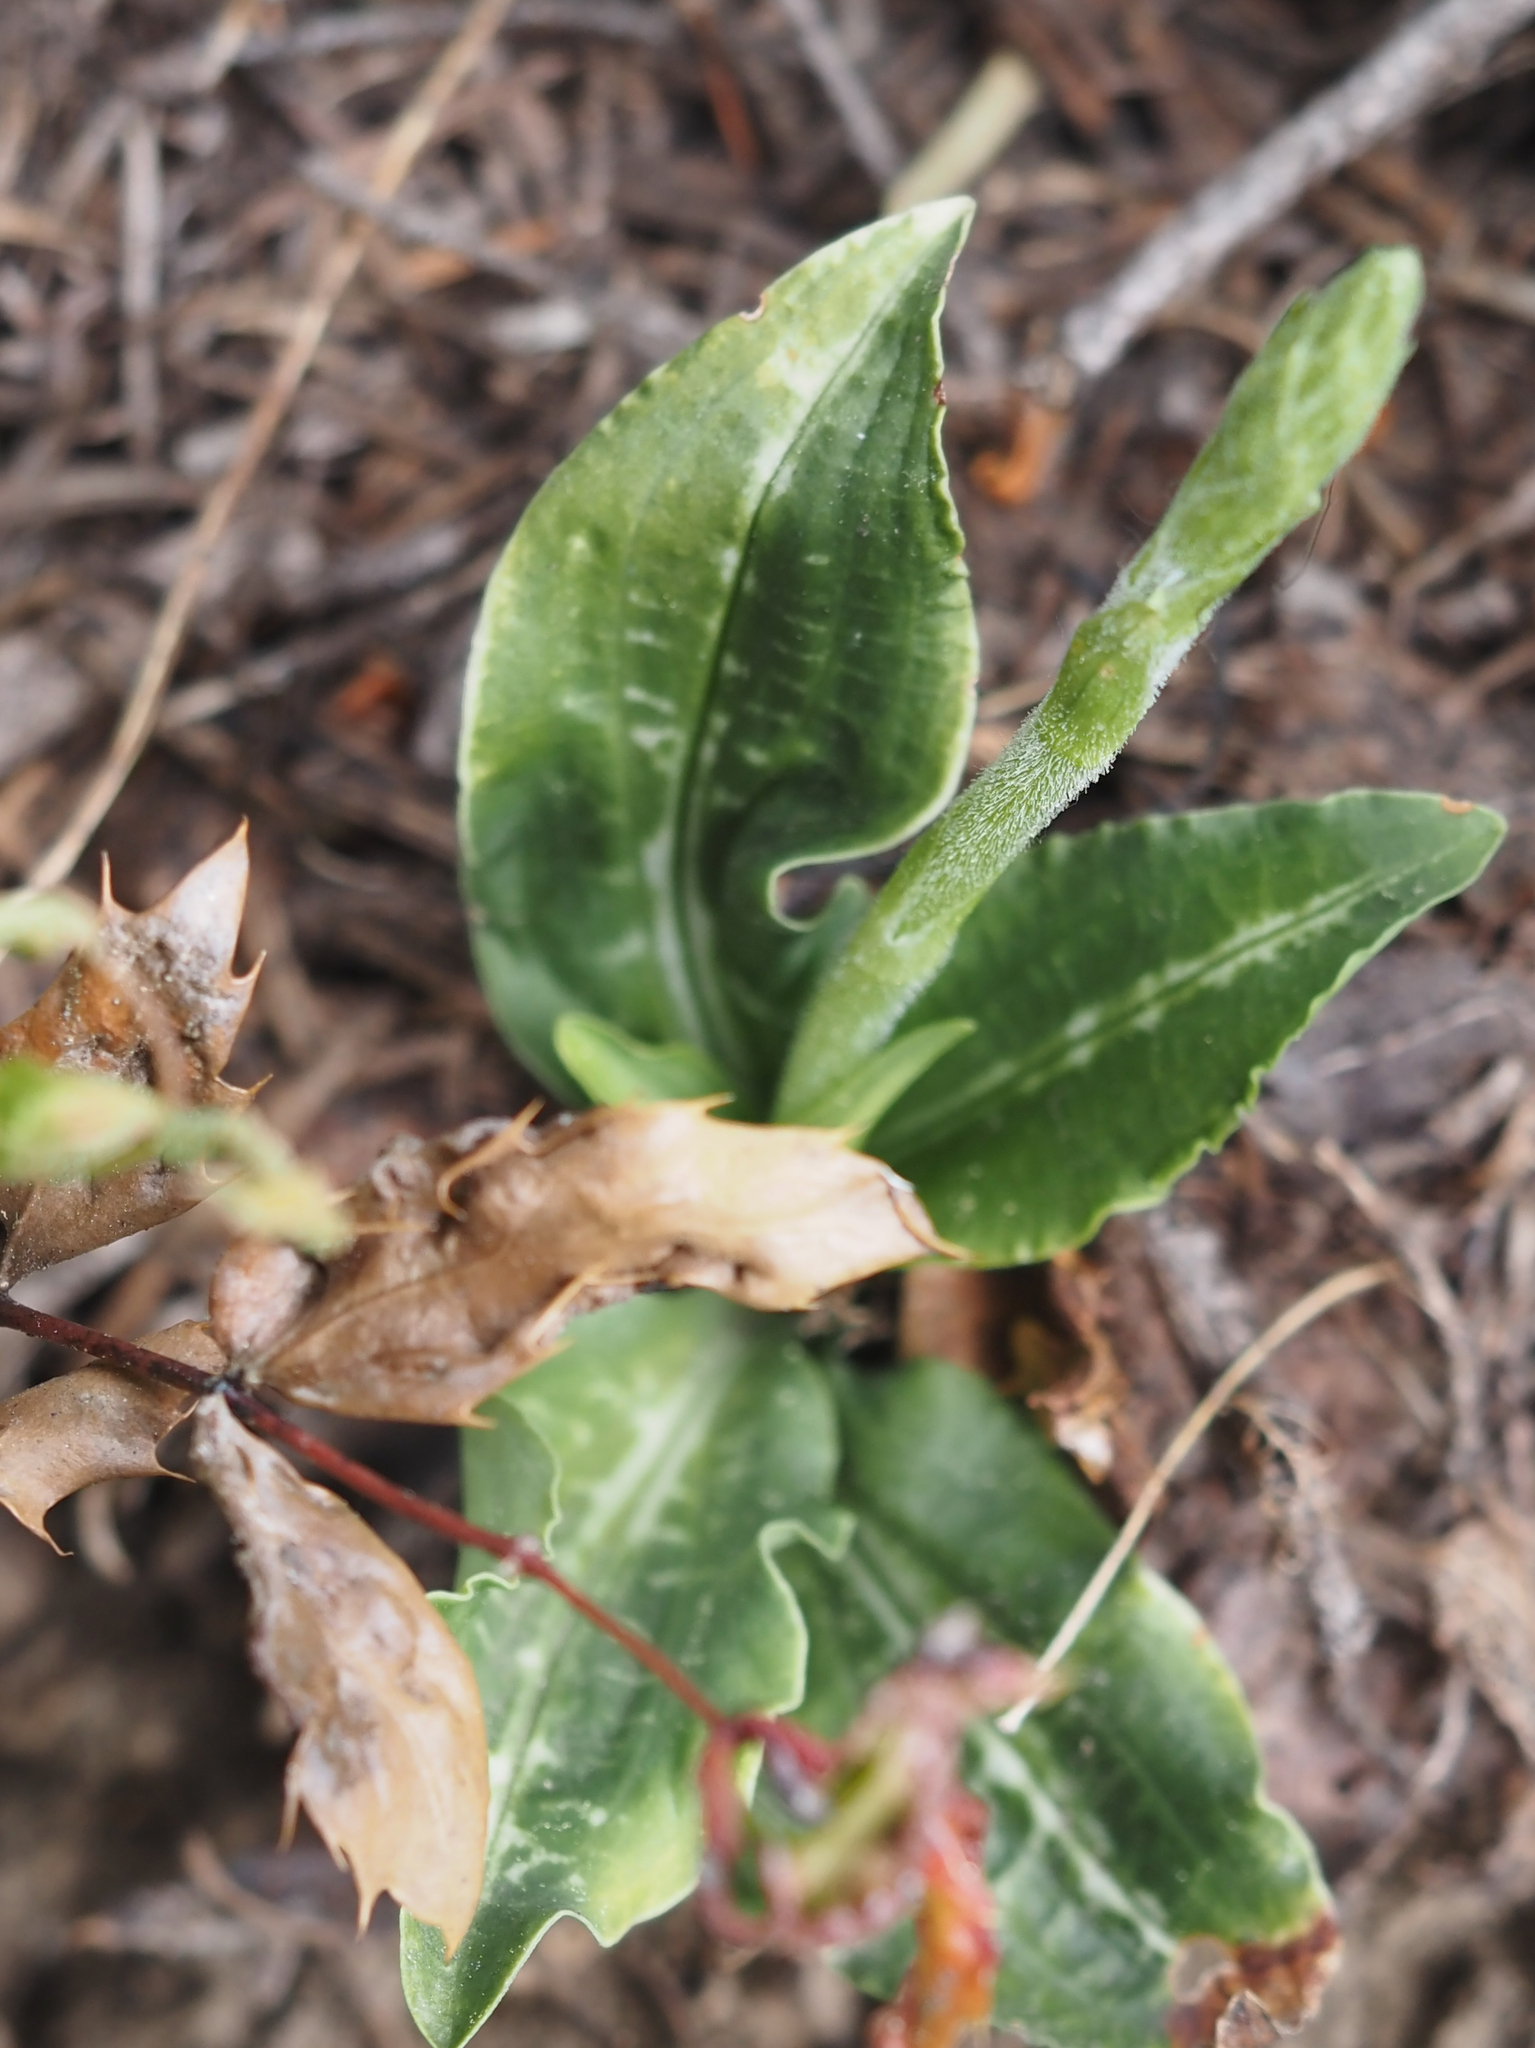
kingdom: Plantae
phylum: Tracheophyta
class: Liliopsida
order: Asparagales
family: Orchidaceae
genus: Goodyera
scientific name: Goodyera oblongifolia
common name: Giant rattlesnake-plantain
